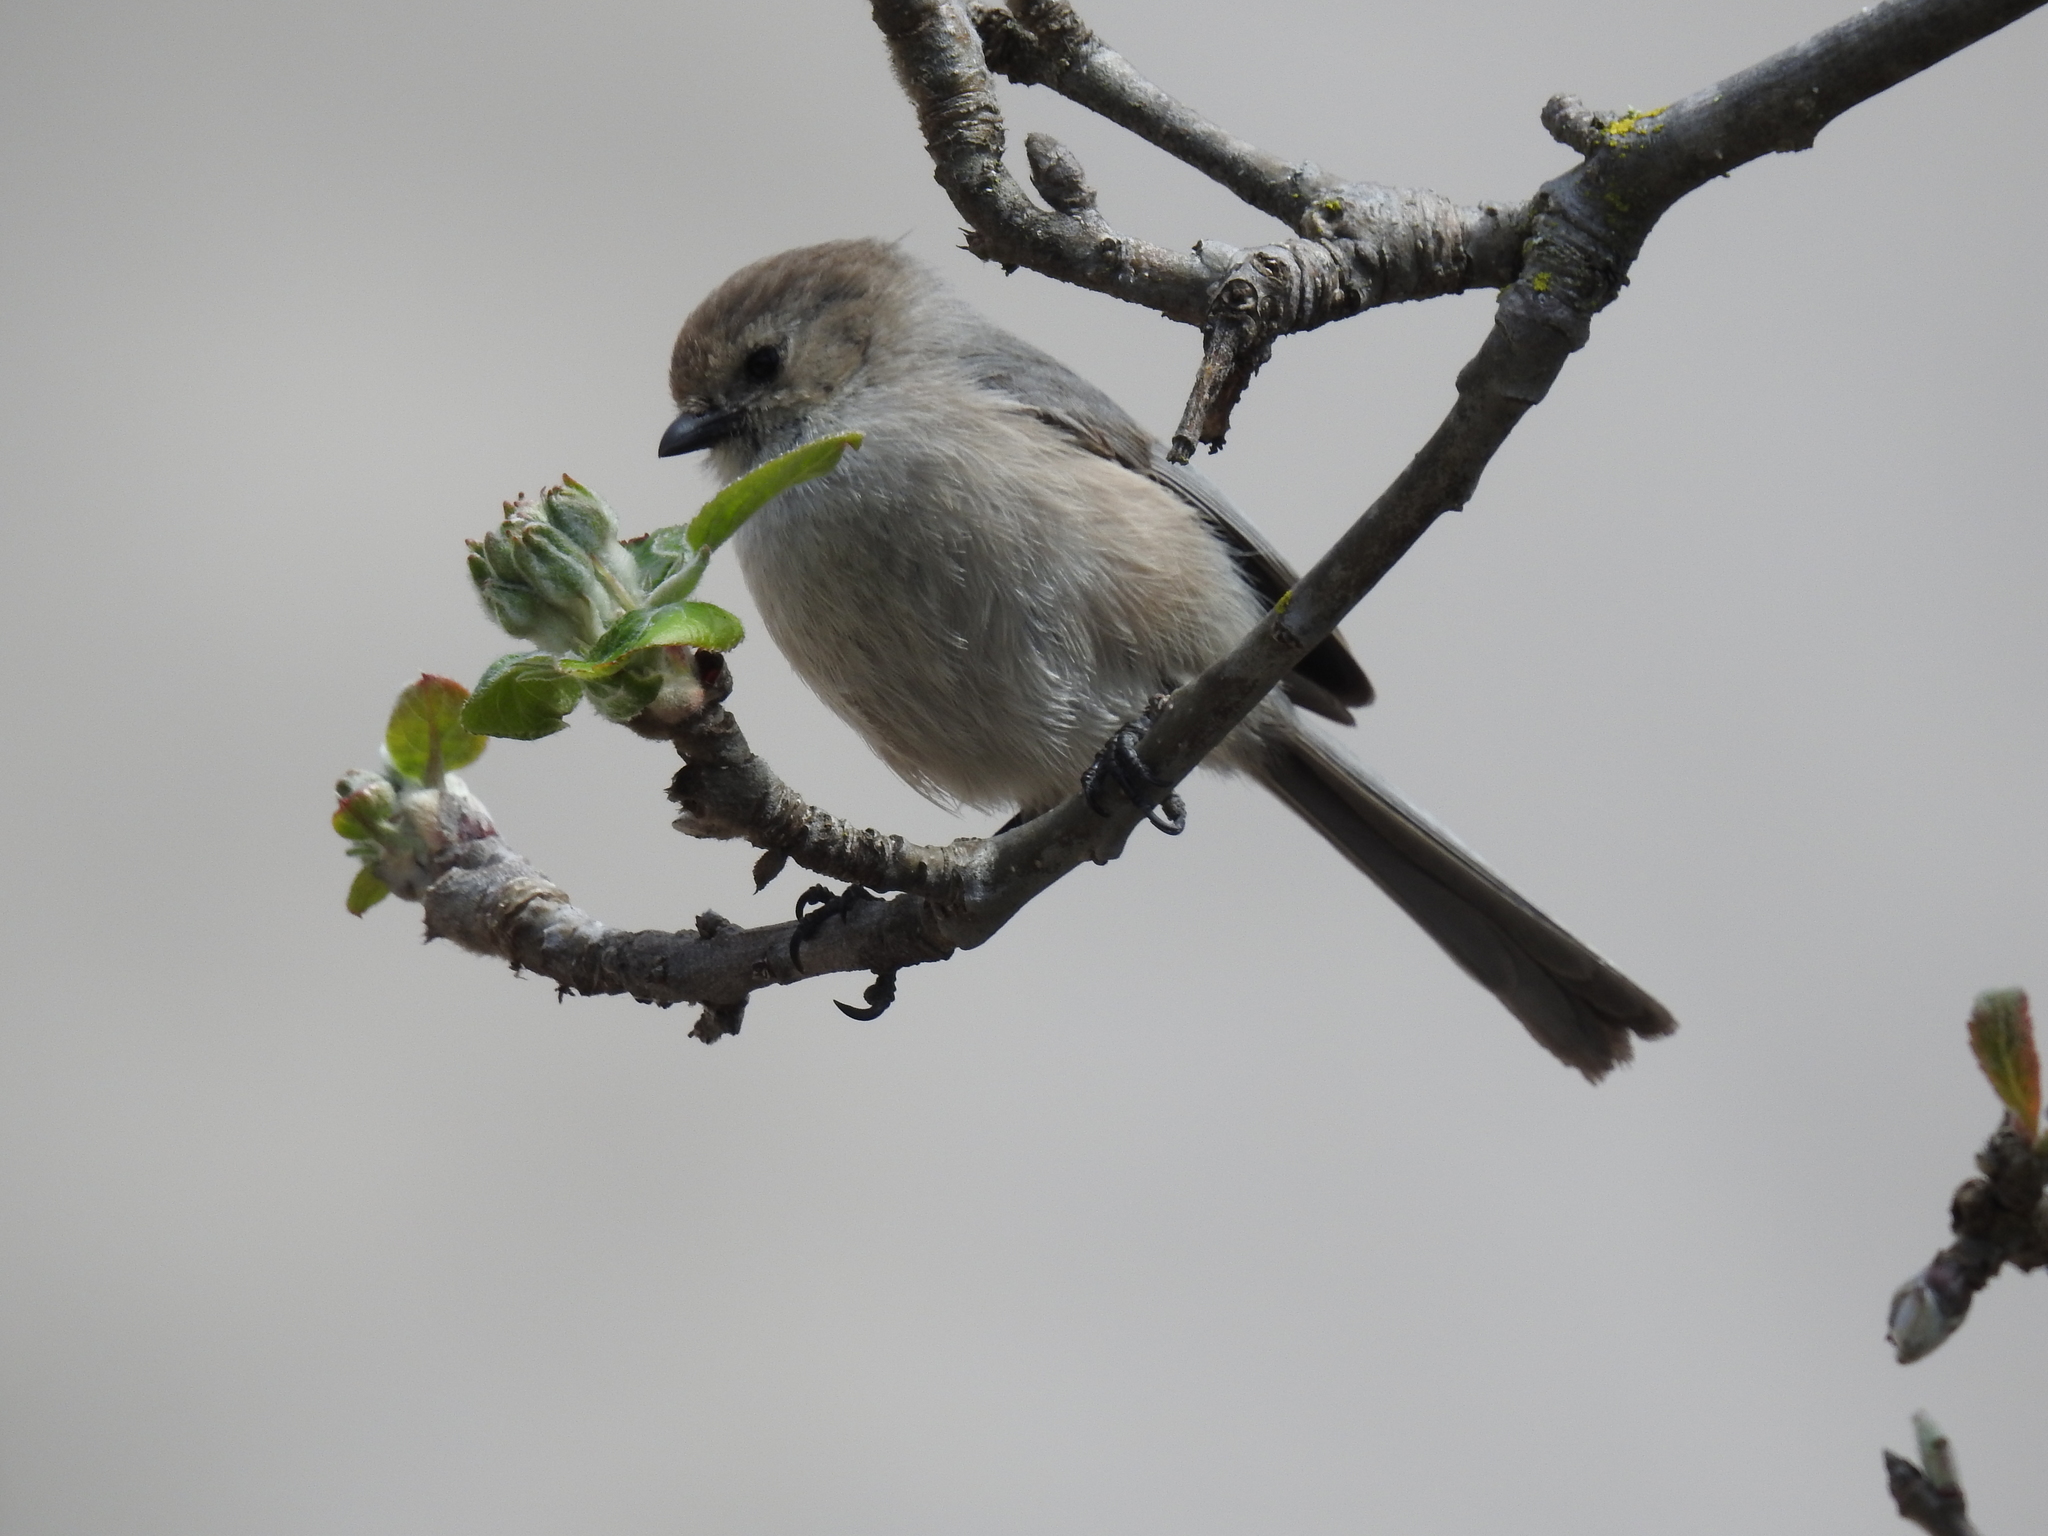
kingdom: Animalia
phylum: Chordata
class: Aves
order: Passeriformes
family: Aegithalidae
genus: Psaltriparus
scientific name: Psaltriparus minimus
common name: American bushtit
